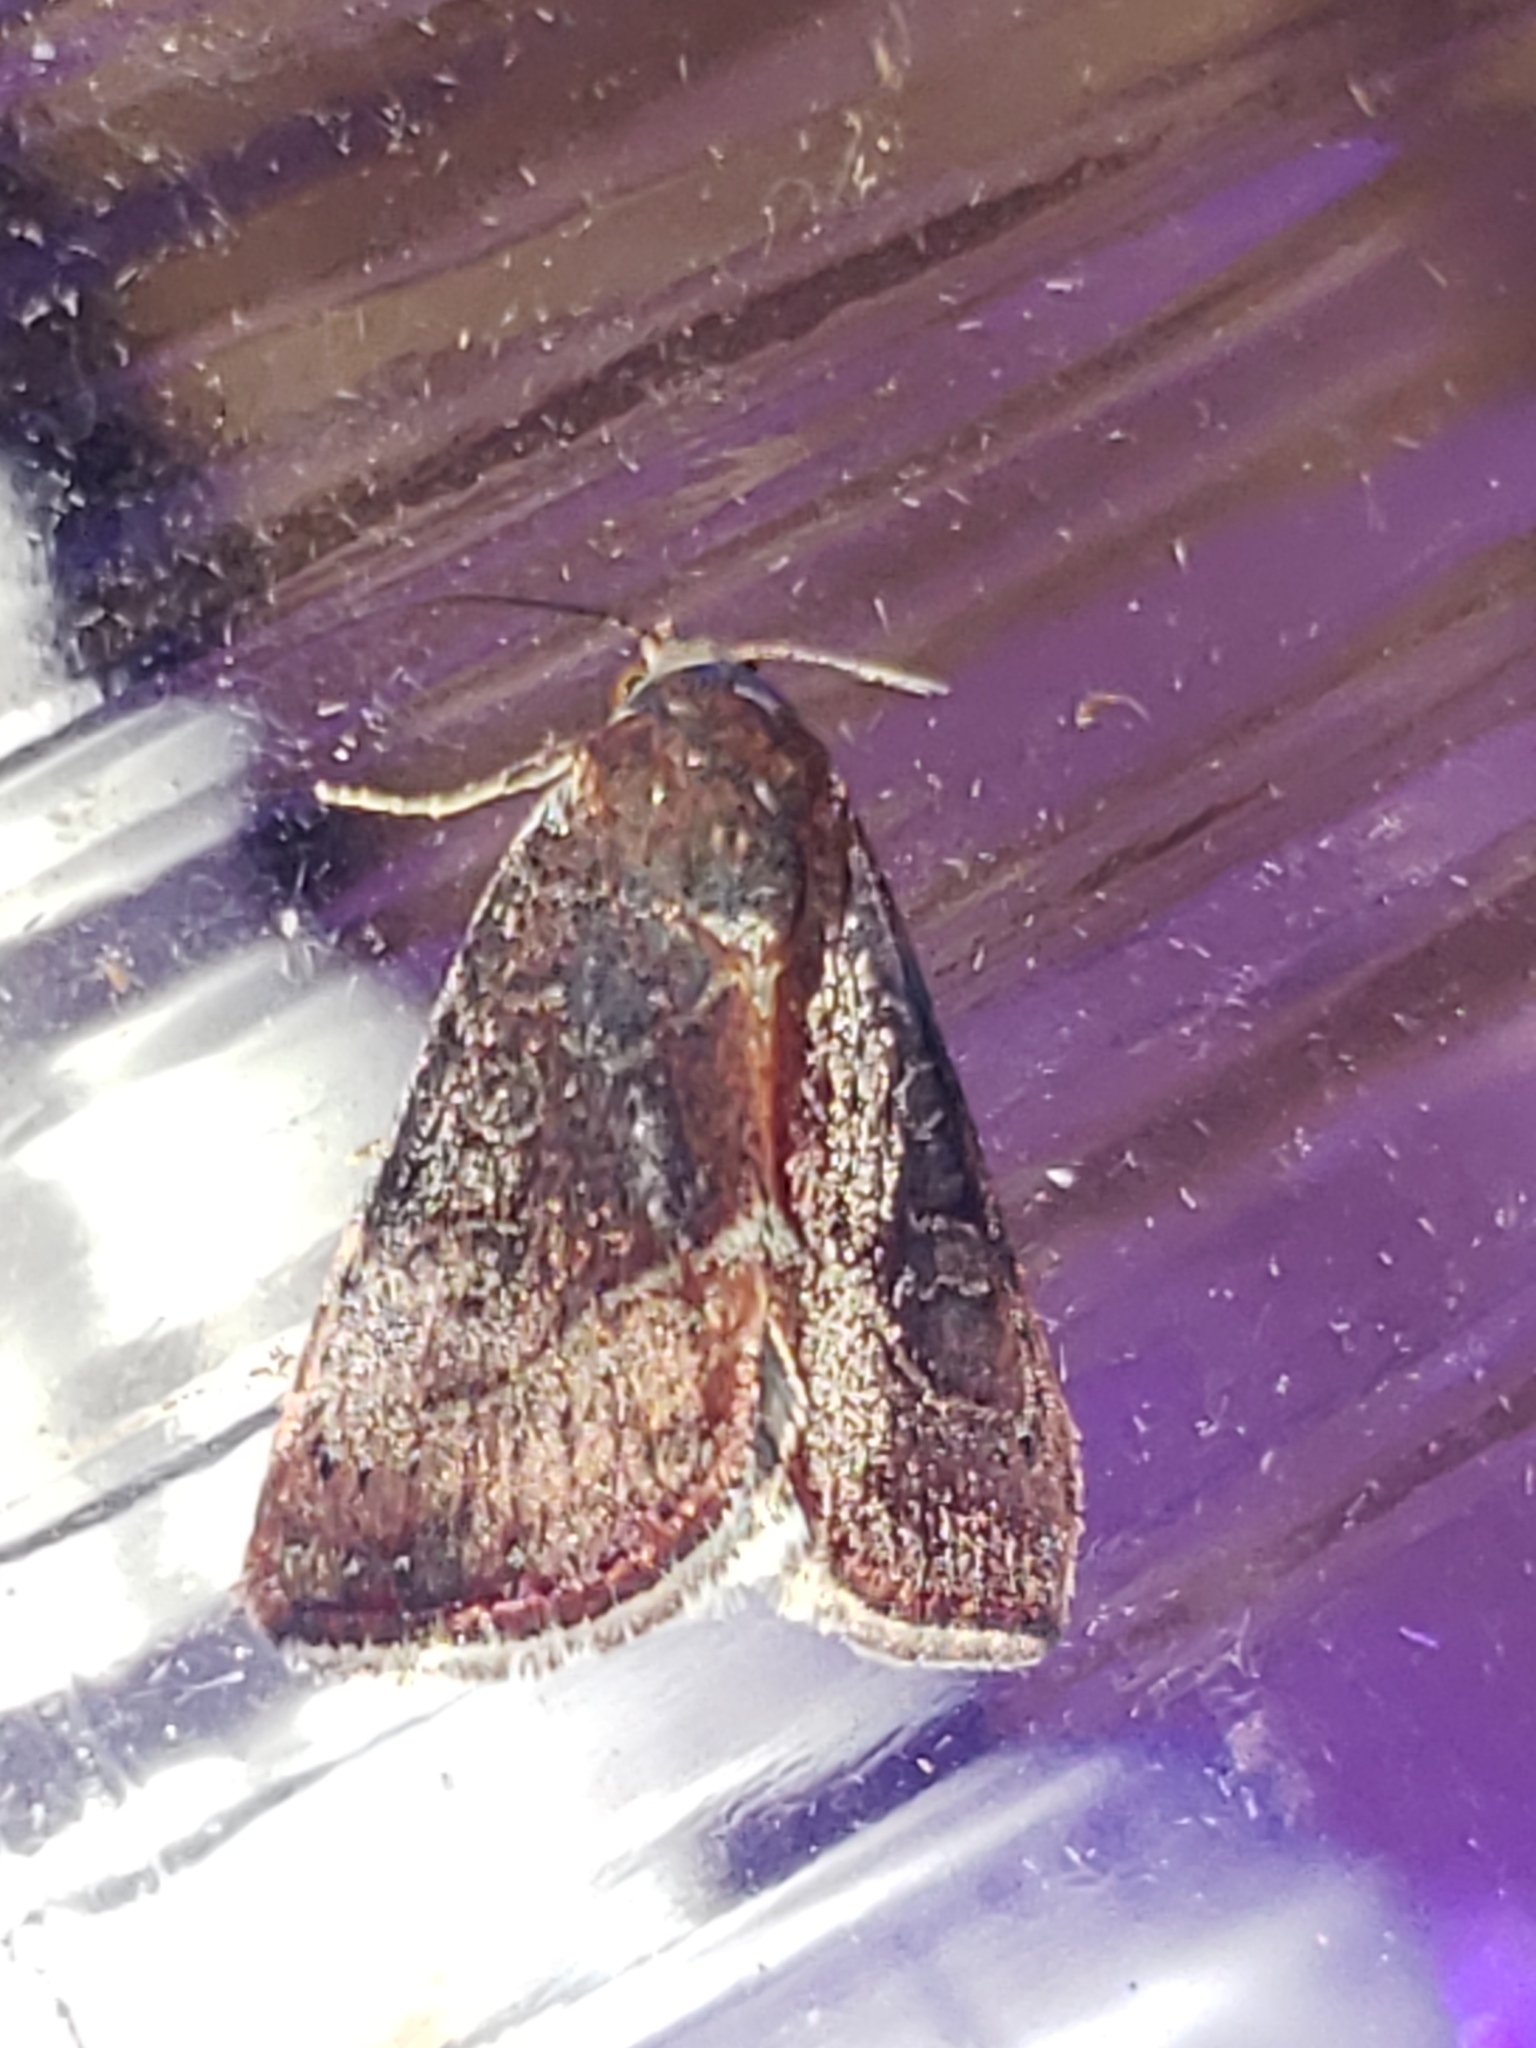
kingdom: Animalia
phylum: Arthropoda
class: Insecta
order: Lepidoptera
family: Noctuidae
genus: Galgula
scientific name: Galgula partita
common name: Wedgeling
